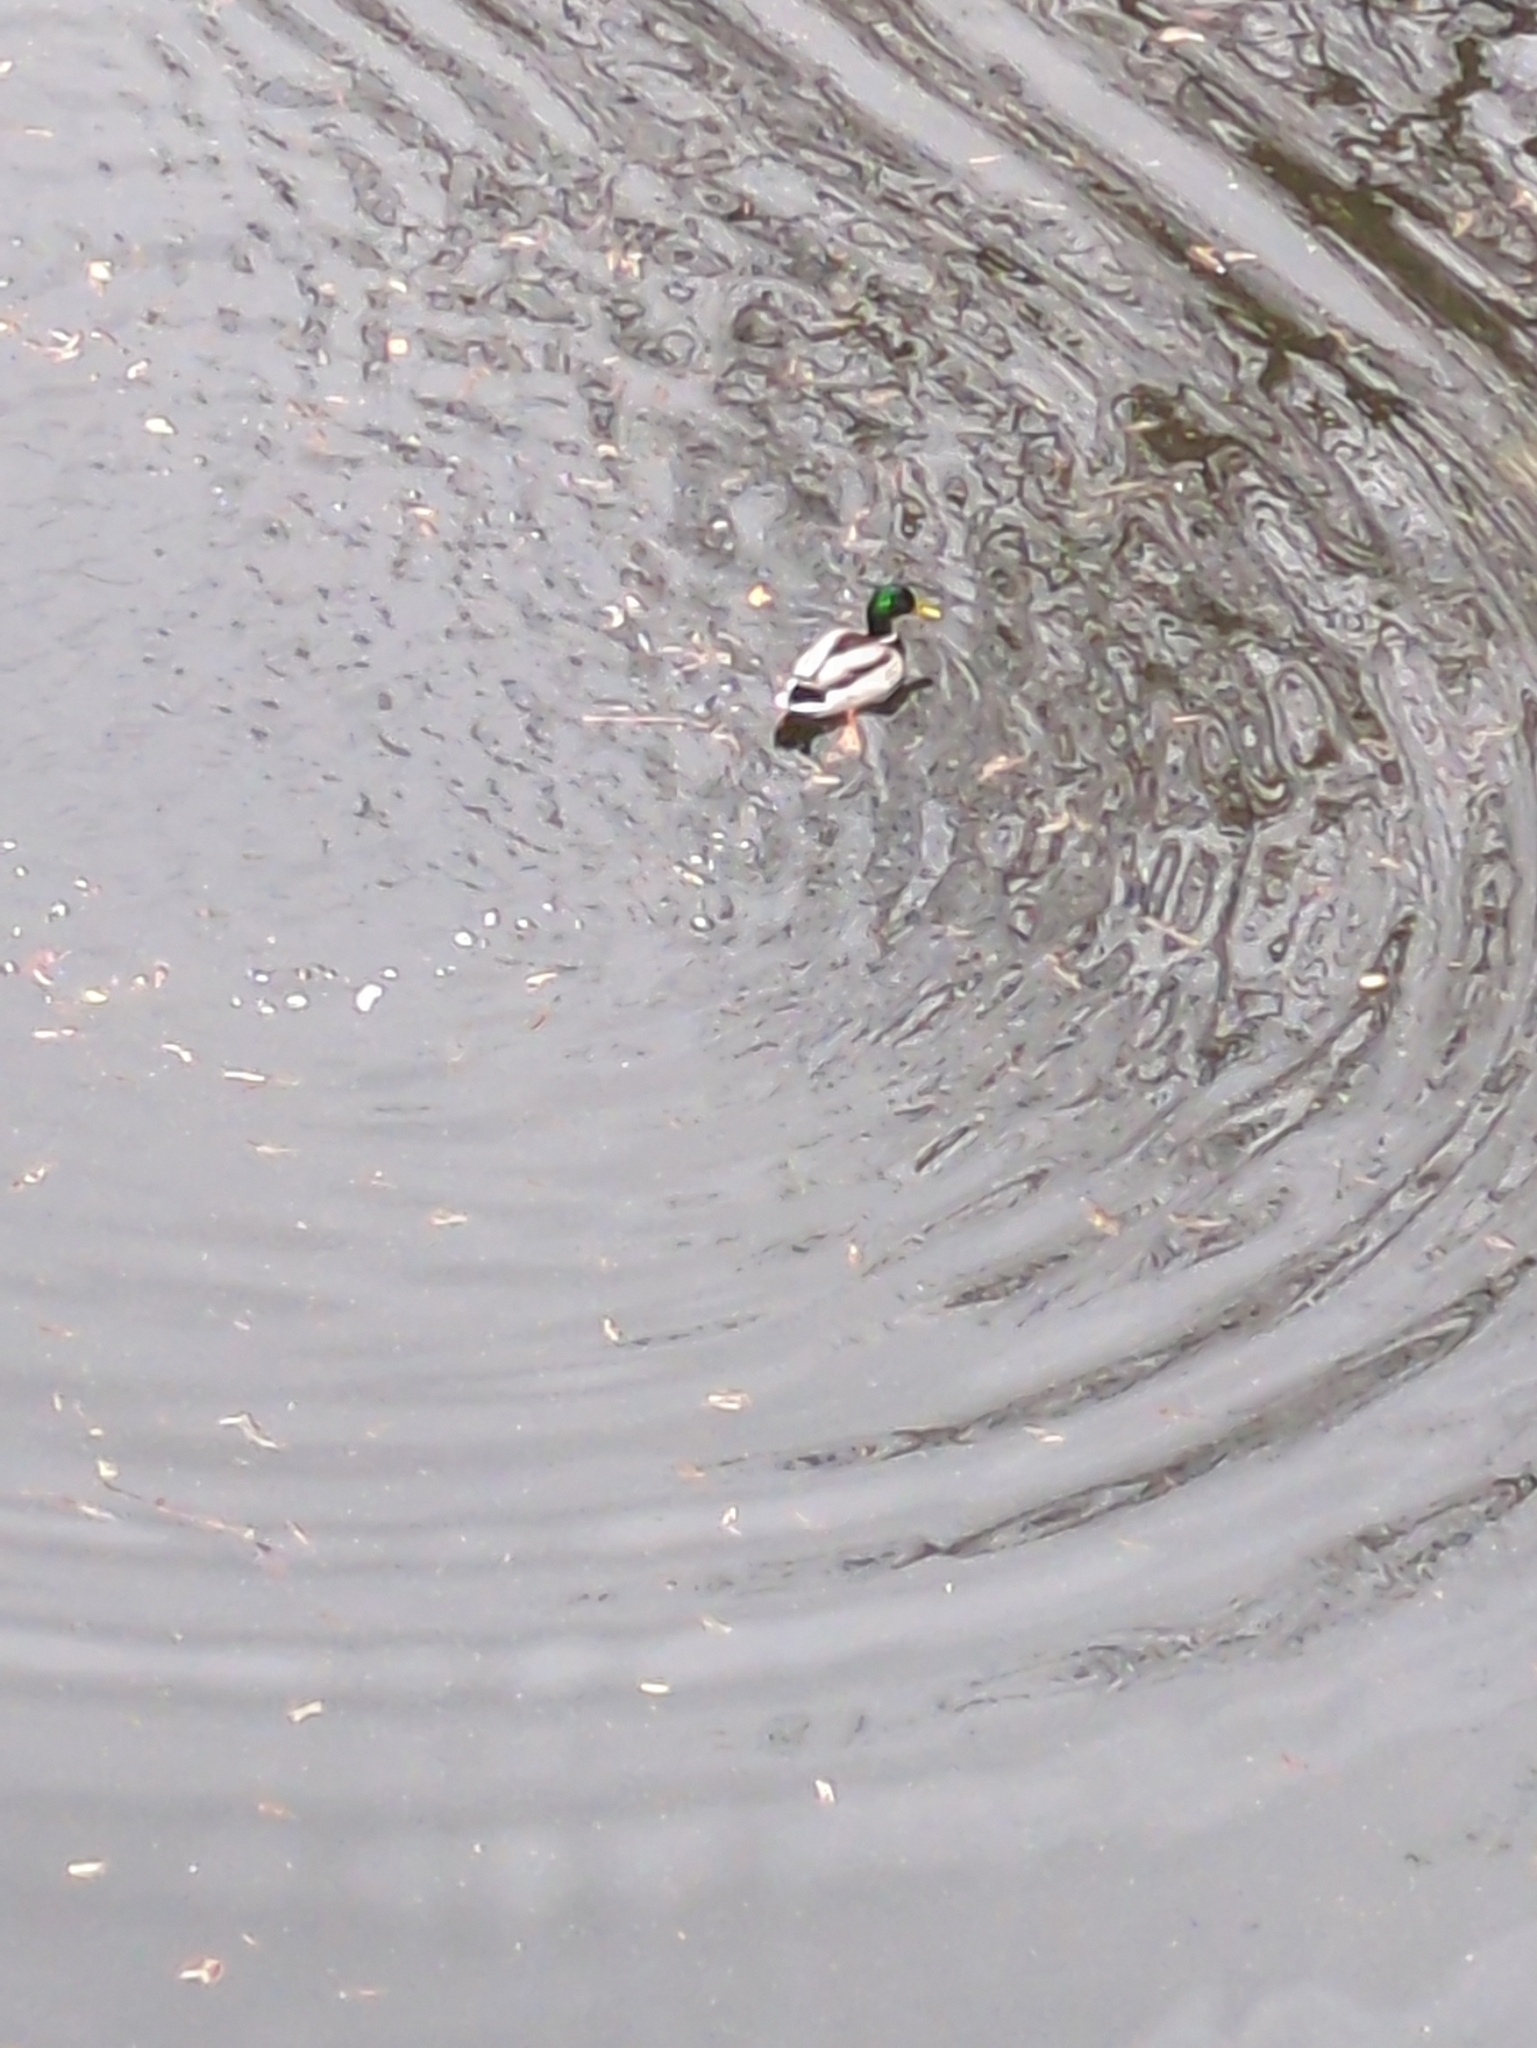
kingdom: Animalia
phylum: Chordata
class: Aves
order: Anseriformes
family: Anatidae
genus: Anas
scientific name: Anas platyrhynchos
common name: Mallard
